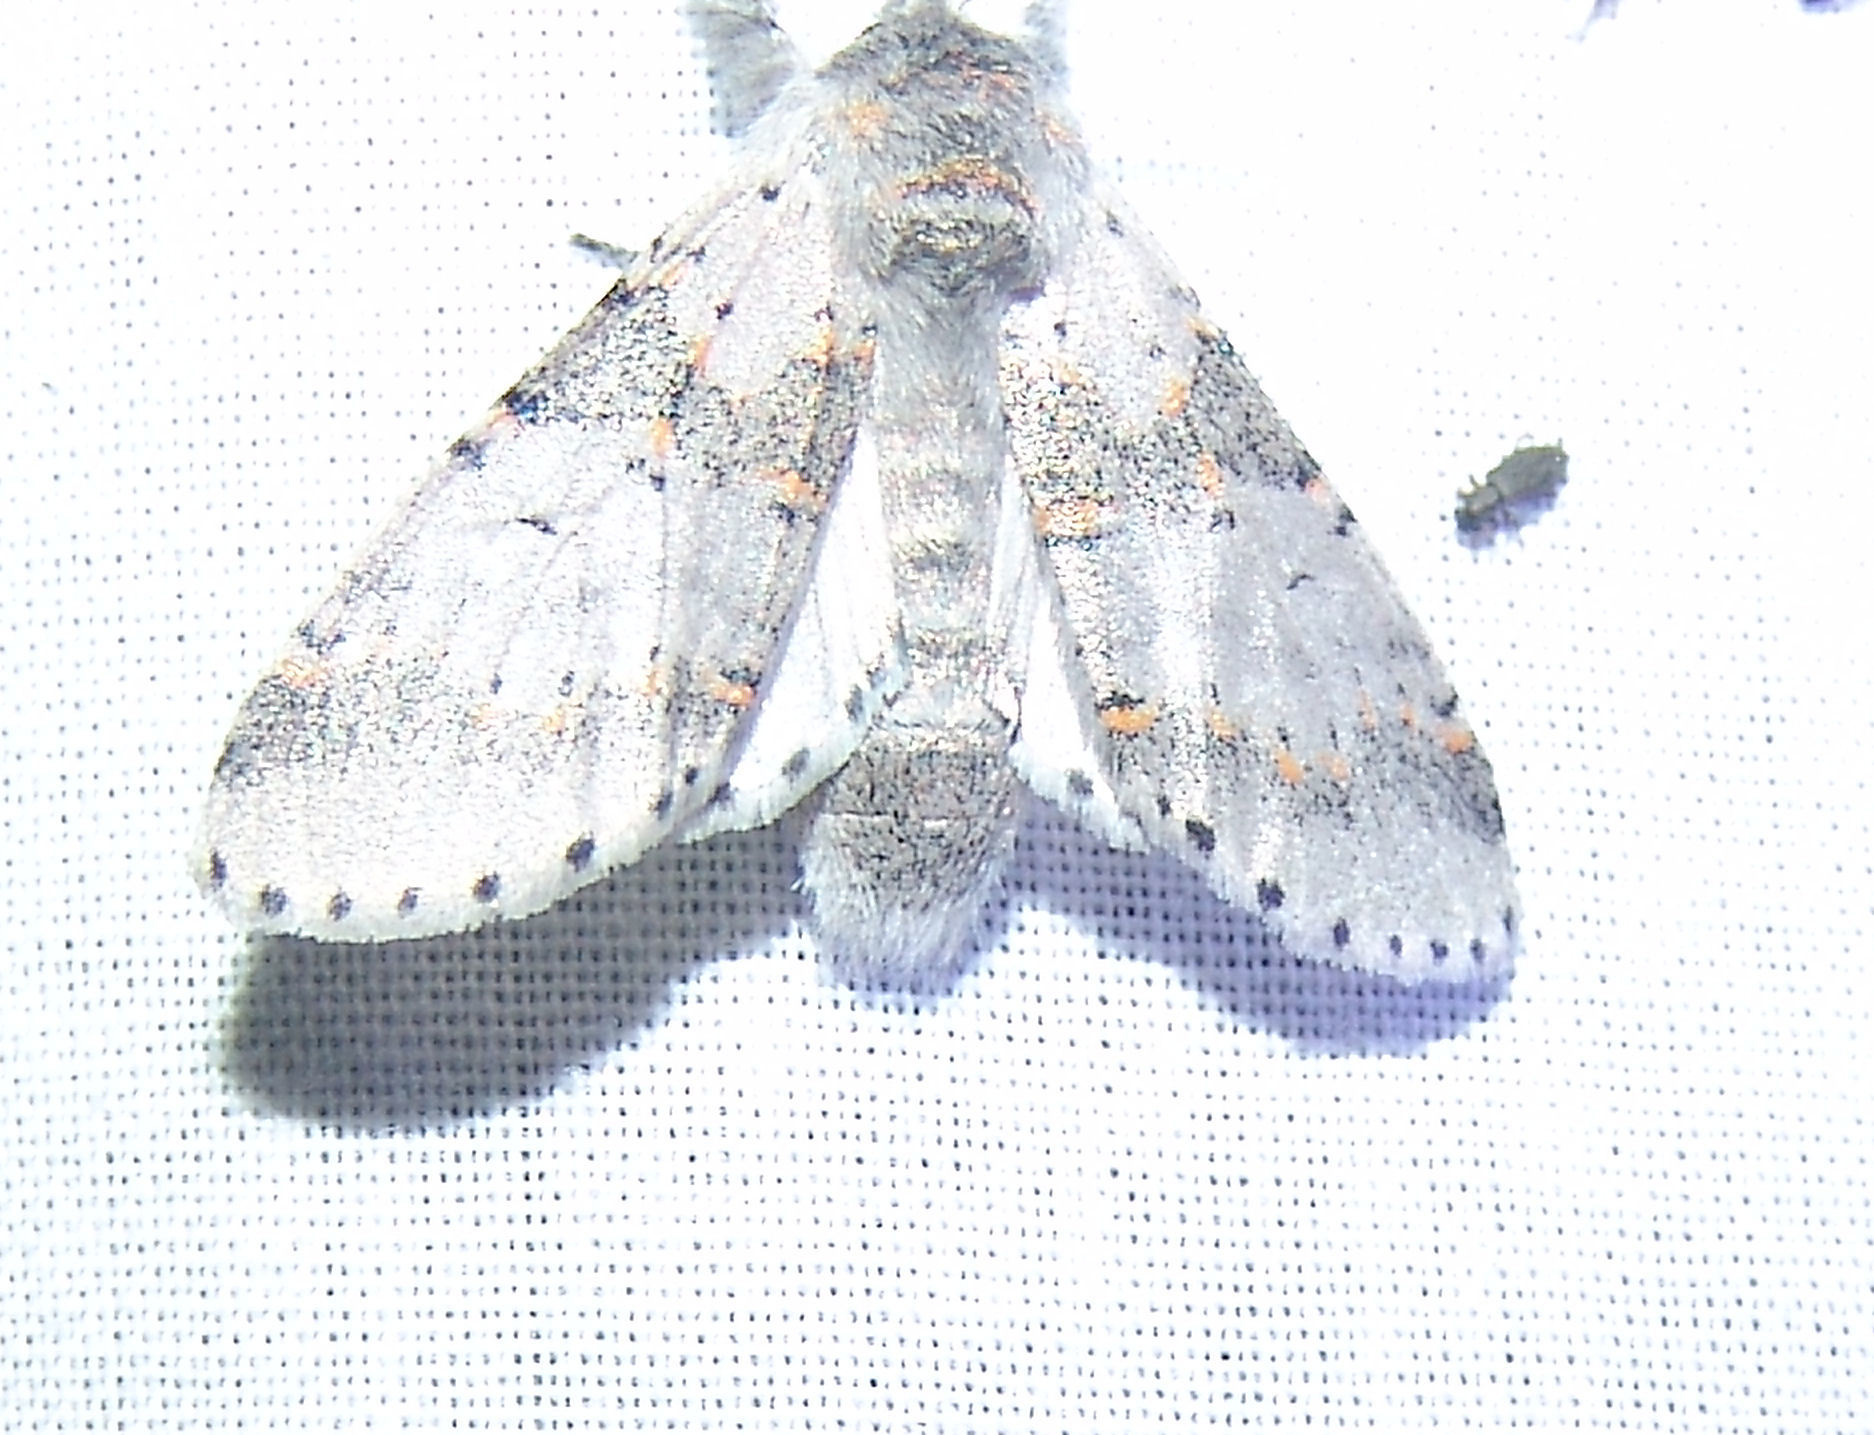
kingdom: Animalia
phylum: Arthropoda
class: Insecta
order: Lepidoptera
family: Notodontidae
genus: Furcula
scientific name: Furcula cinerea
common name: Gray furcula
